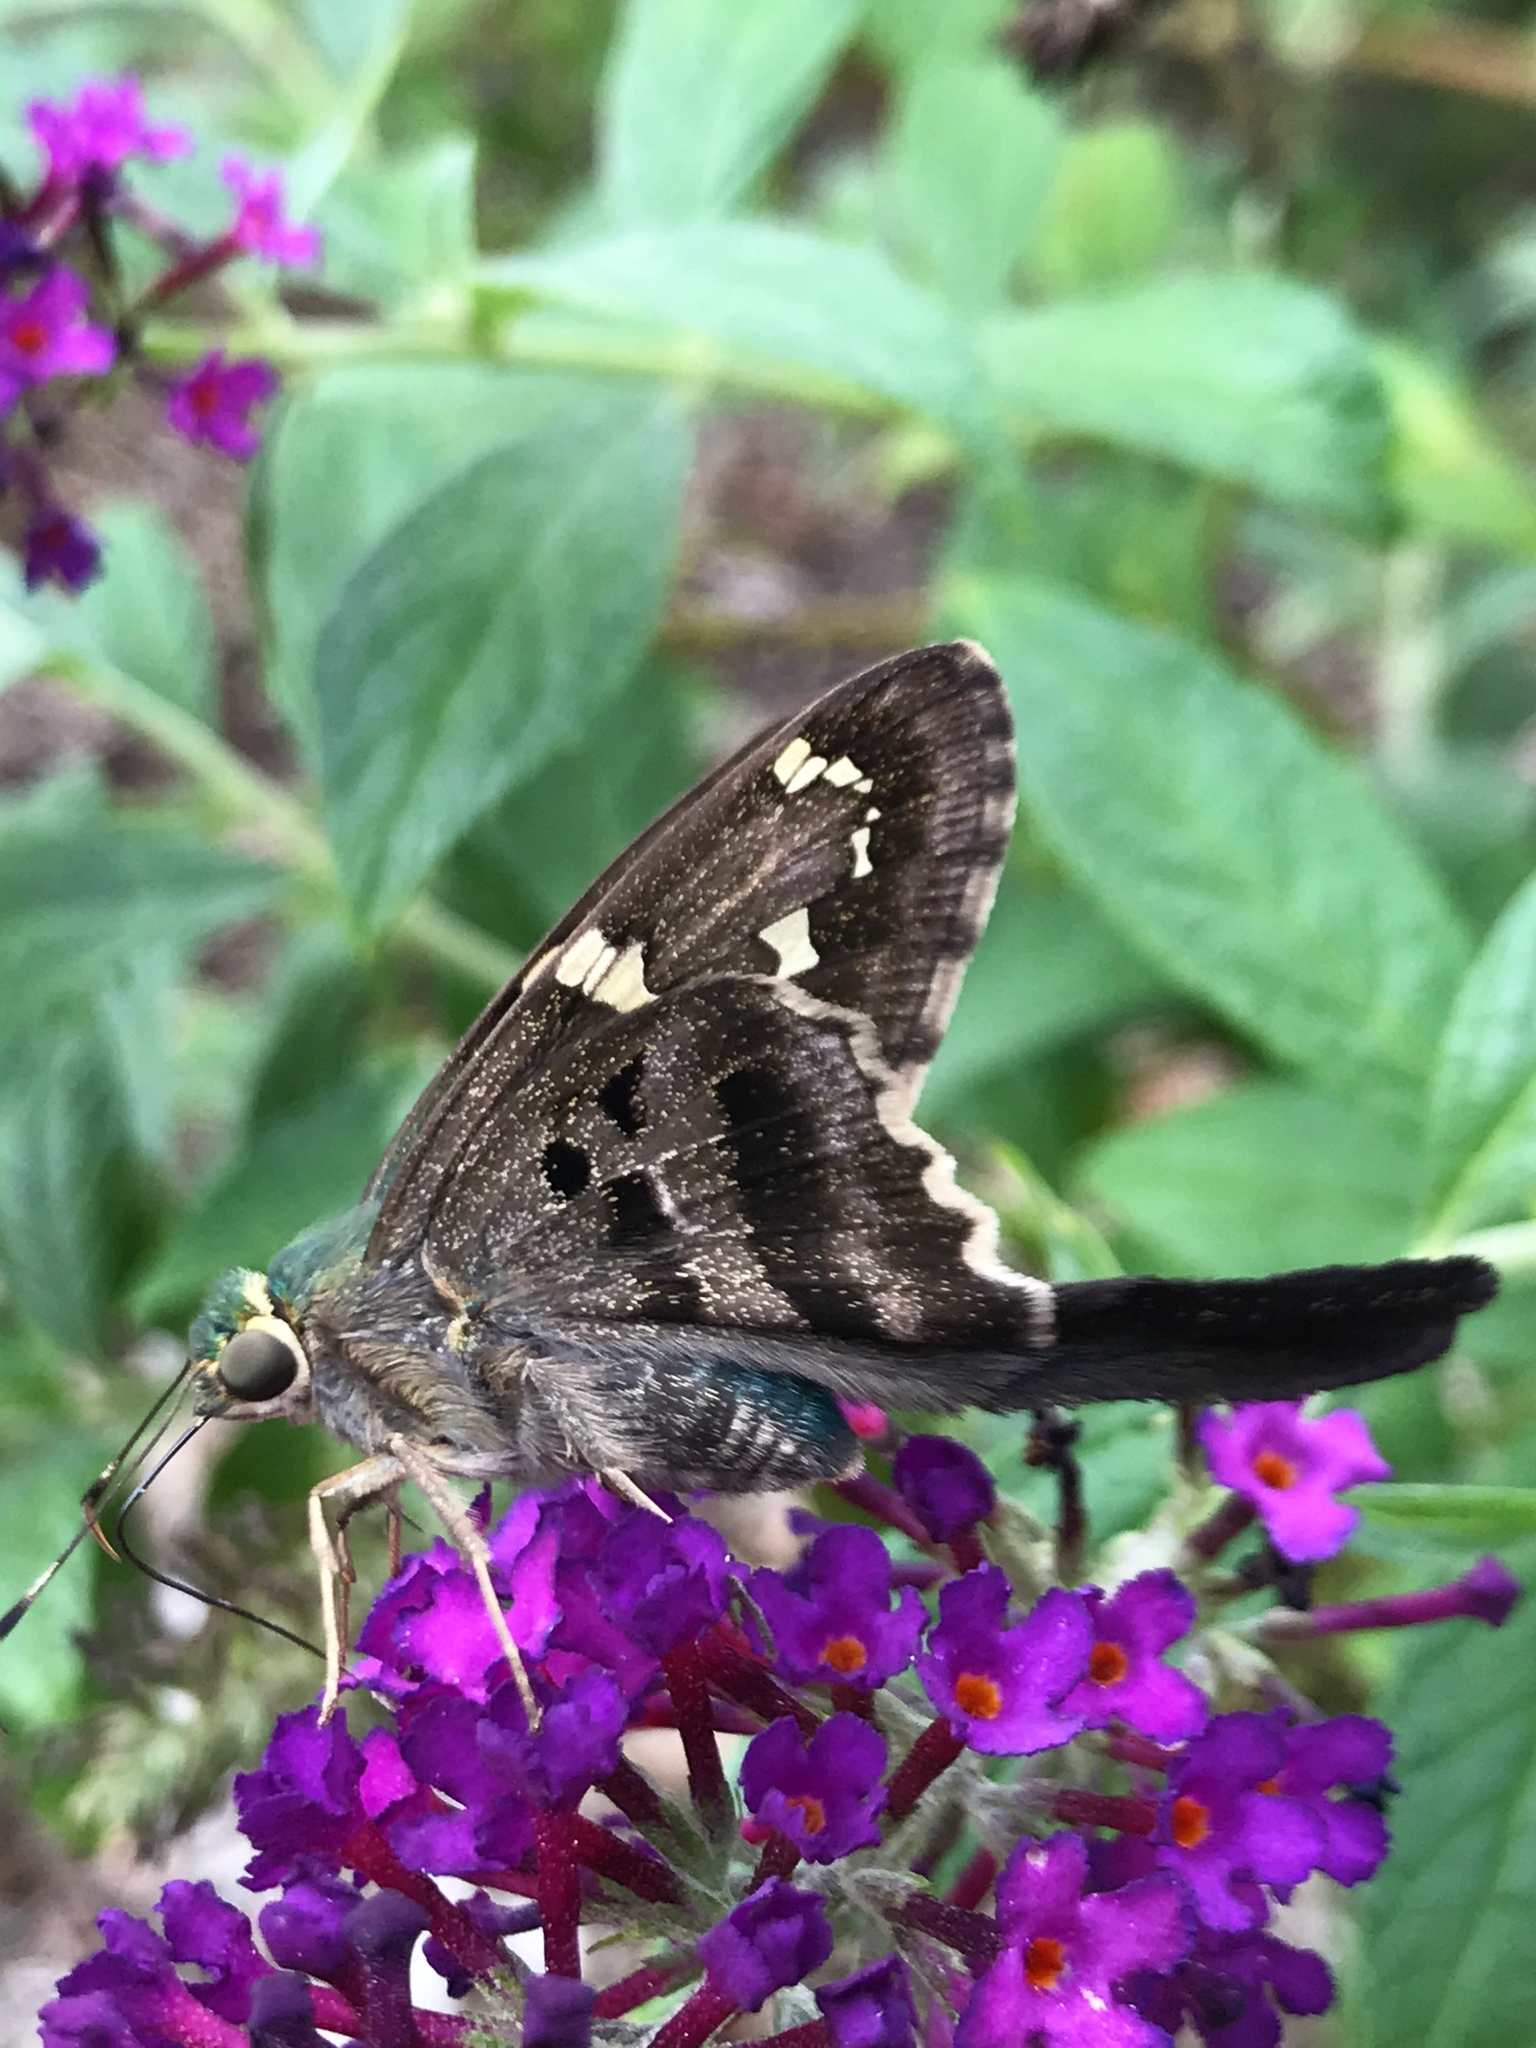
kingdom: Animalia
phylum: Arthropoda
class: Insecta
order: Lepidoptera
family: Hesperiidae
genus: Urbanus
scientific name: Urbanus proteus
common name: Long-tailed skipper
